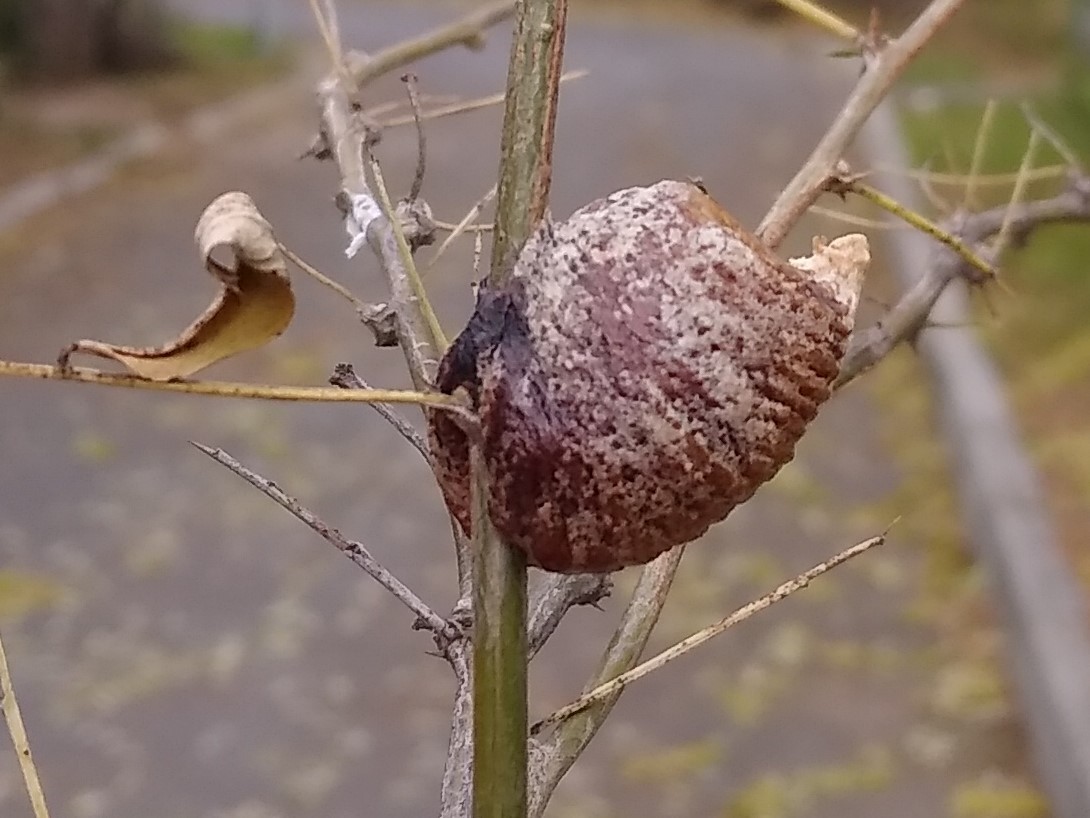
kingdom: Animalia
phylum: Arthropoda
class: Insecta
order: Mantodea
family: Mantidae
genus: Hierodula
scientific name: Hierodula transcaucasica
